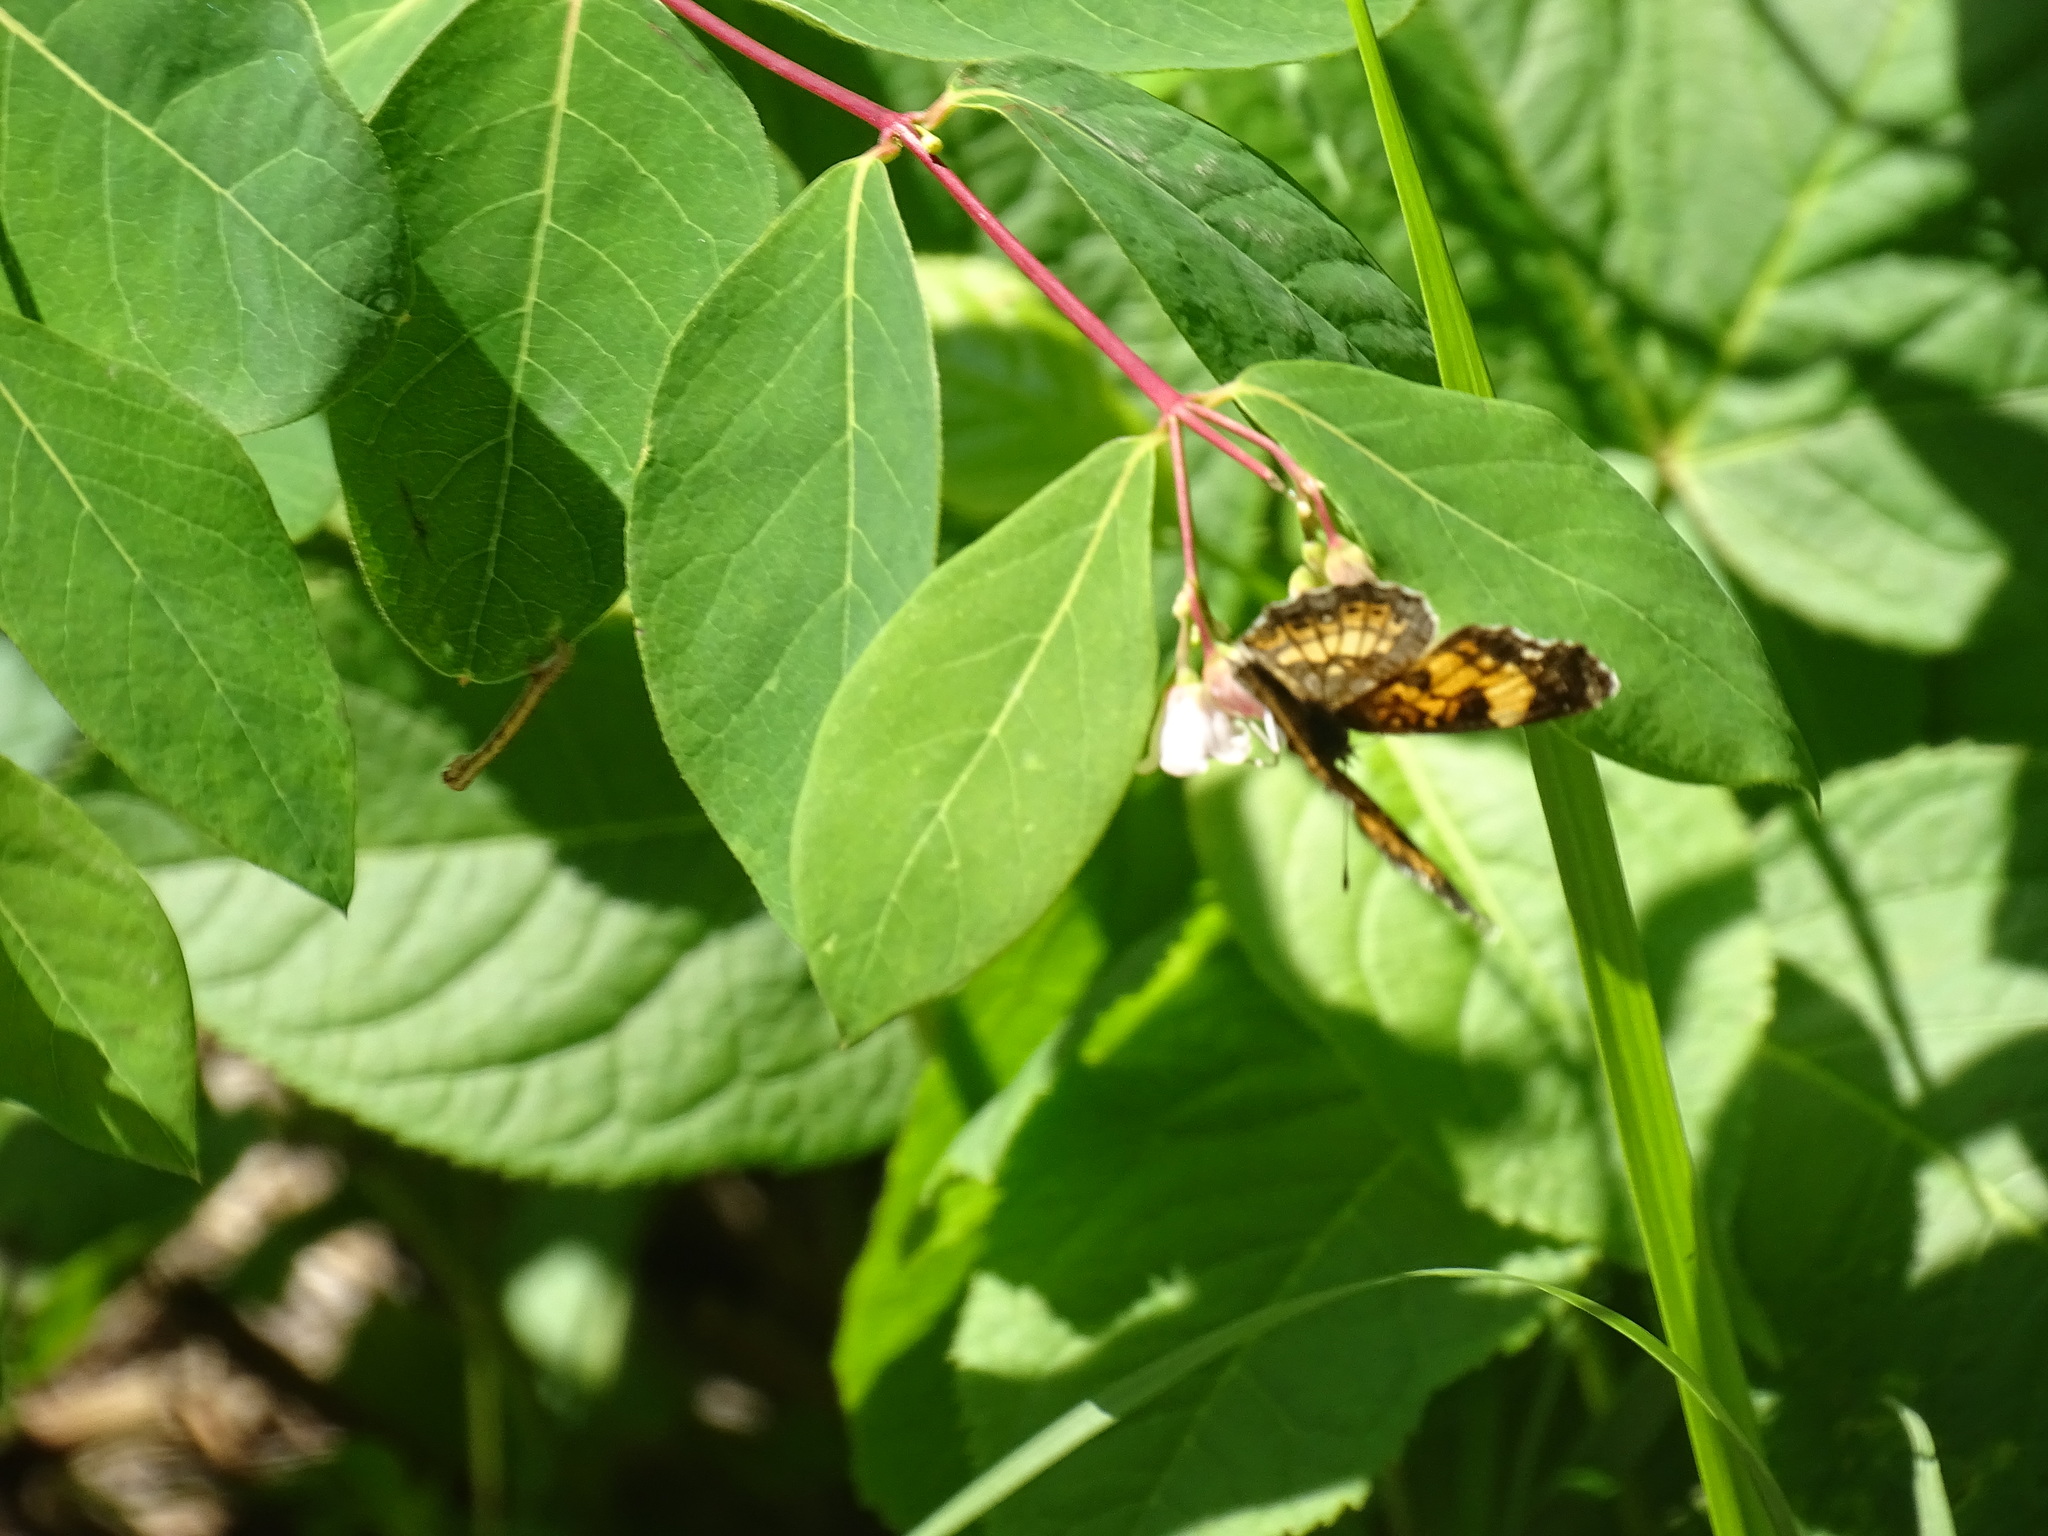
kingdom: Animalia
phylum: Arthropoda
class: Insecta
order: Lepidoptera
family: Nymphalidae
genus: Chlosyne
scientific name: Chlosyne nycteis
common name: Silvery checkerspot
